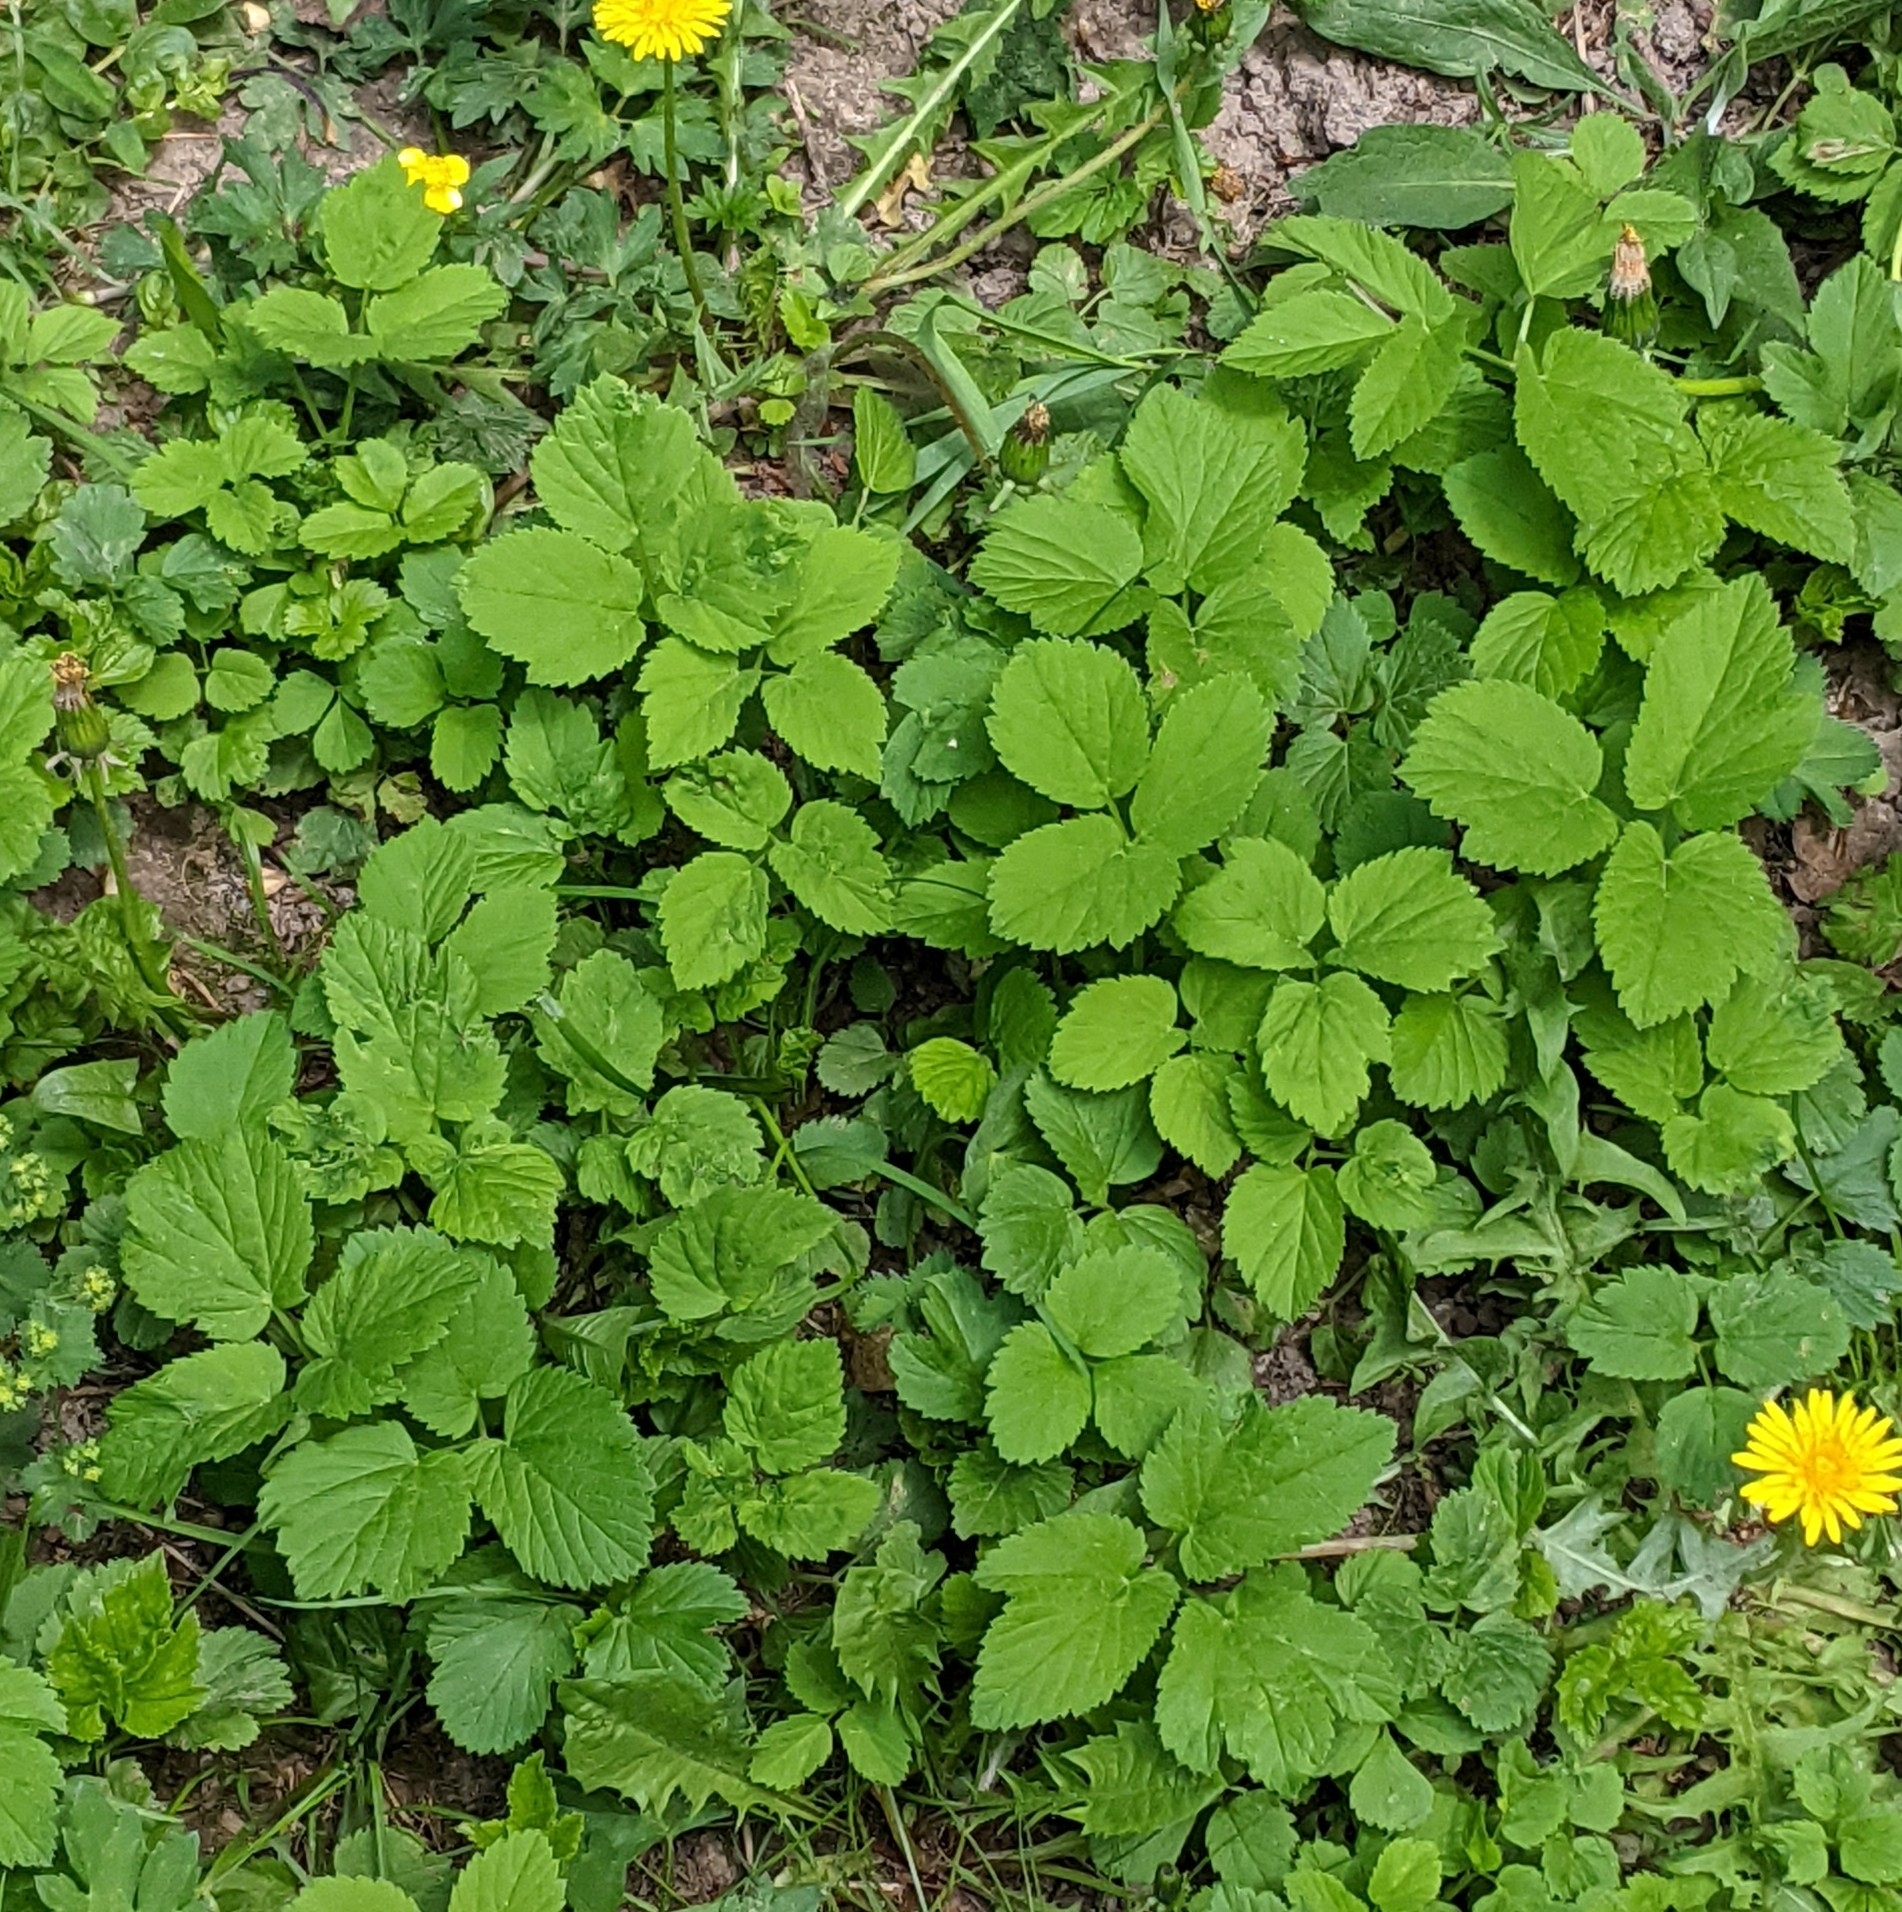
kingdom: Plantae
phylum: Tracheophyta
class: Magnoliopsida
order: Apiales
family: Apiaceae
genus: Aegopodium
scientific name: Aegopodium podagraria
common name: Ground-elder
